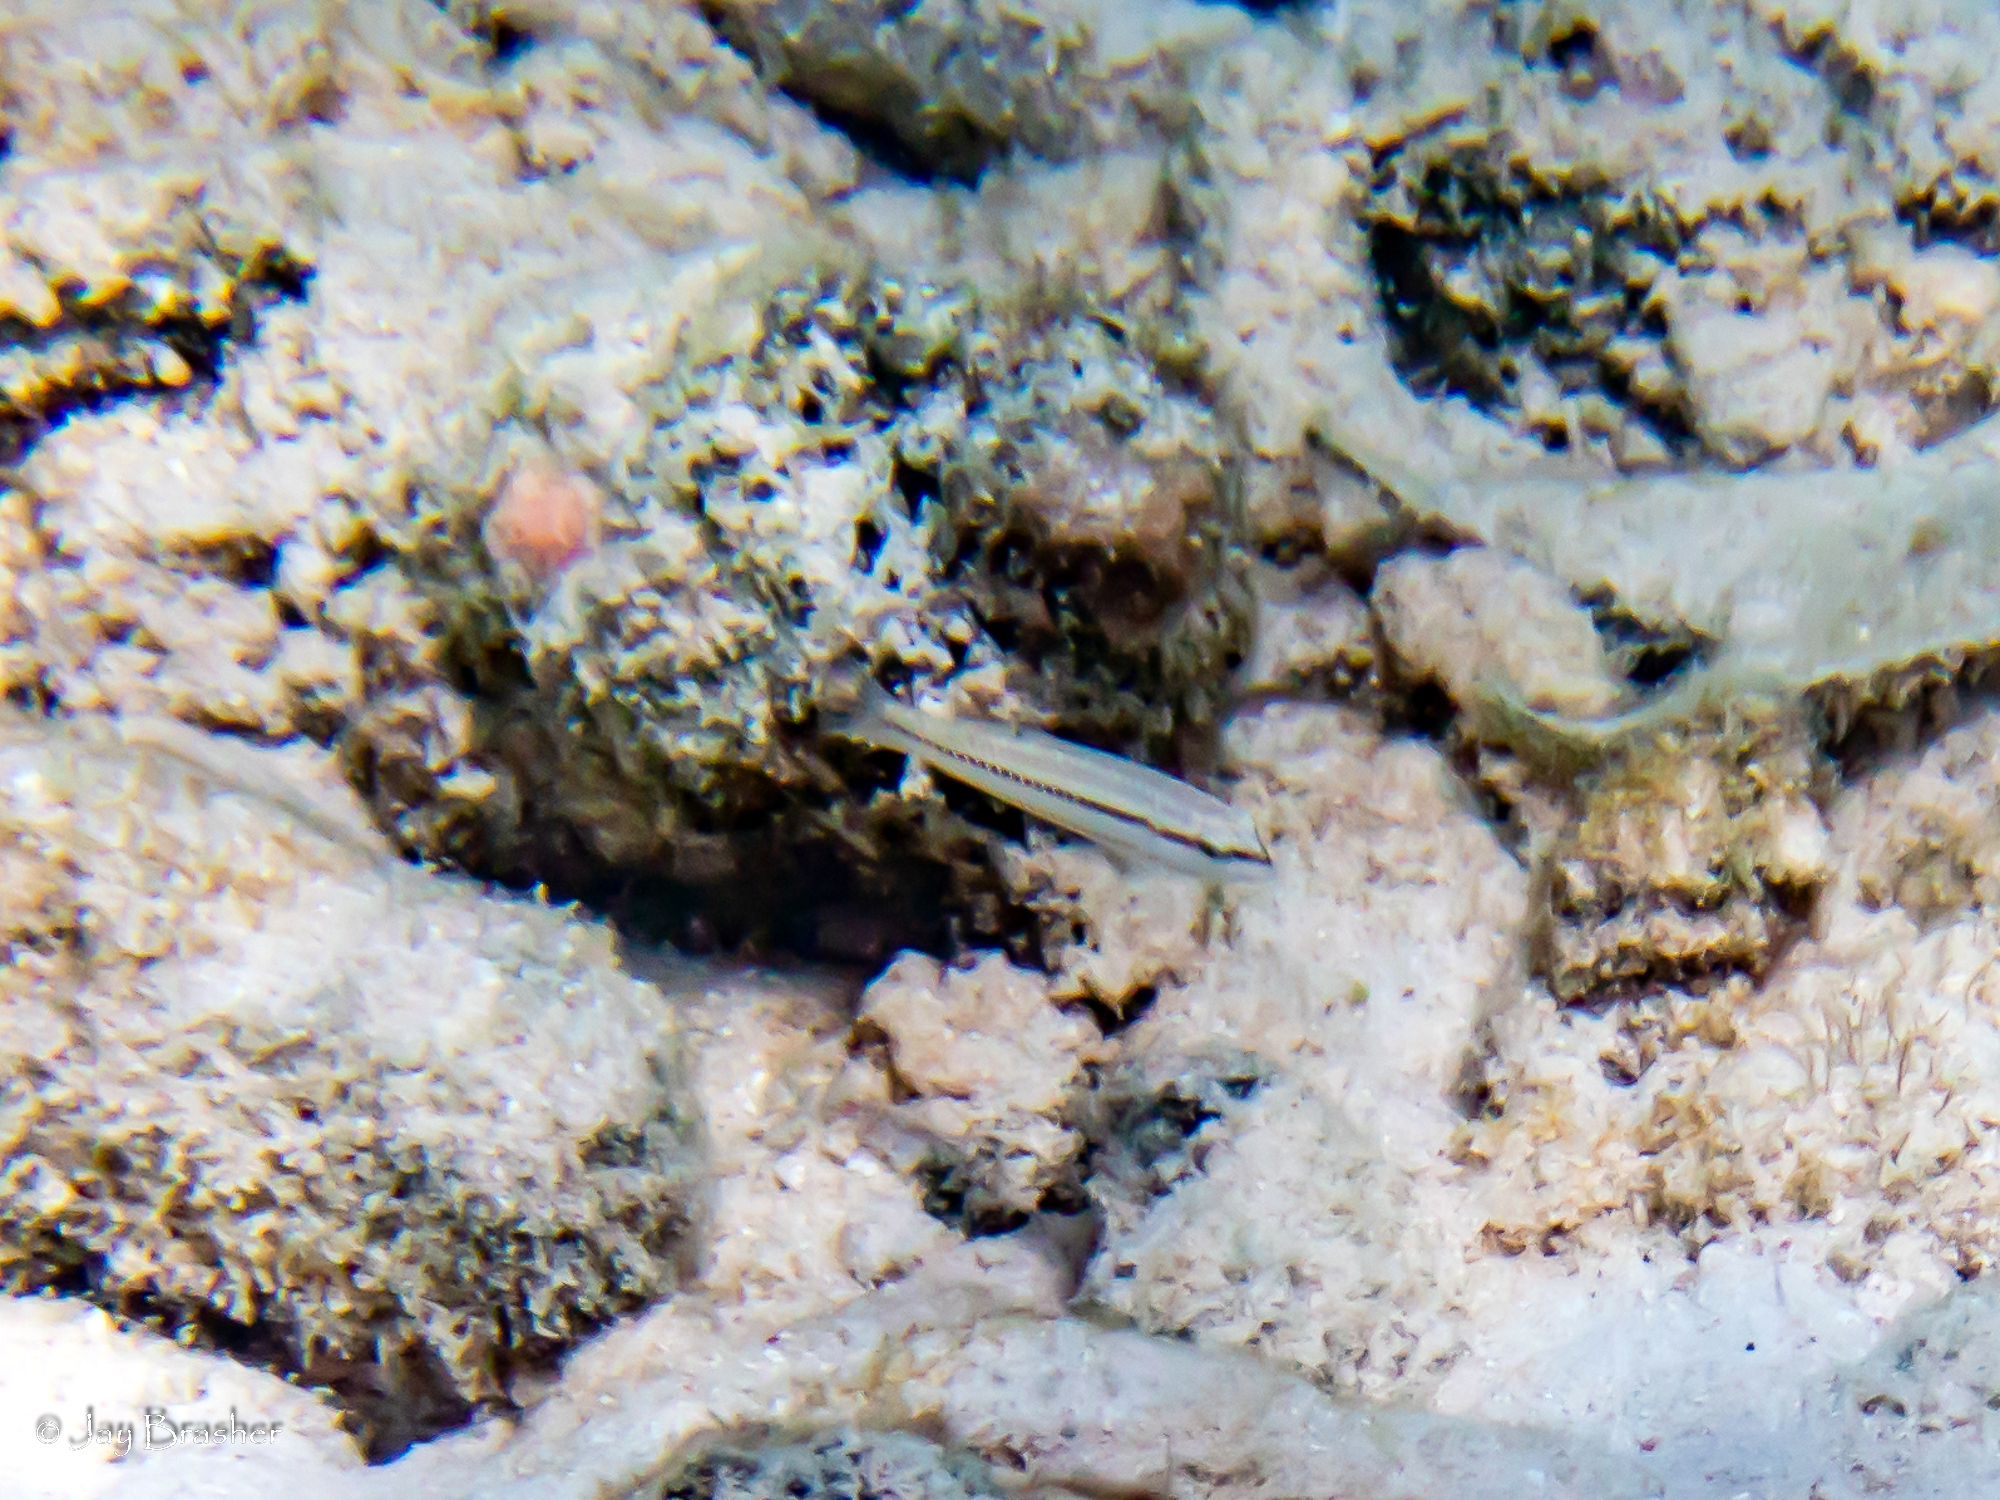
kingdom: Animalia
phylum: Chordata
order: Perciformes
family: Labridae
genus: Halichoeres
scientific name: Halichoeres bivittatus
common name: Slippery dick
